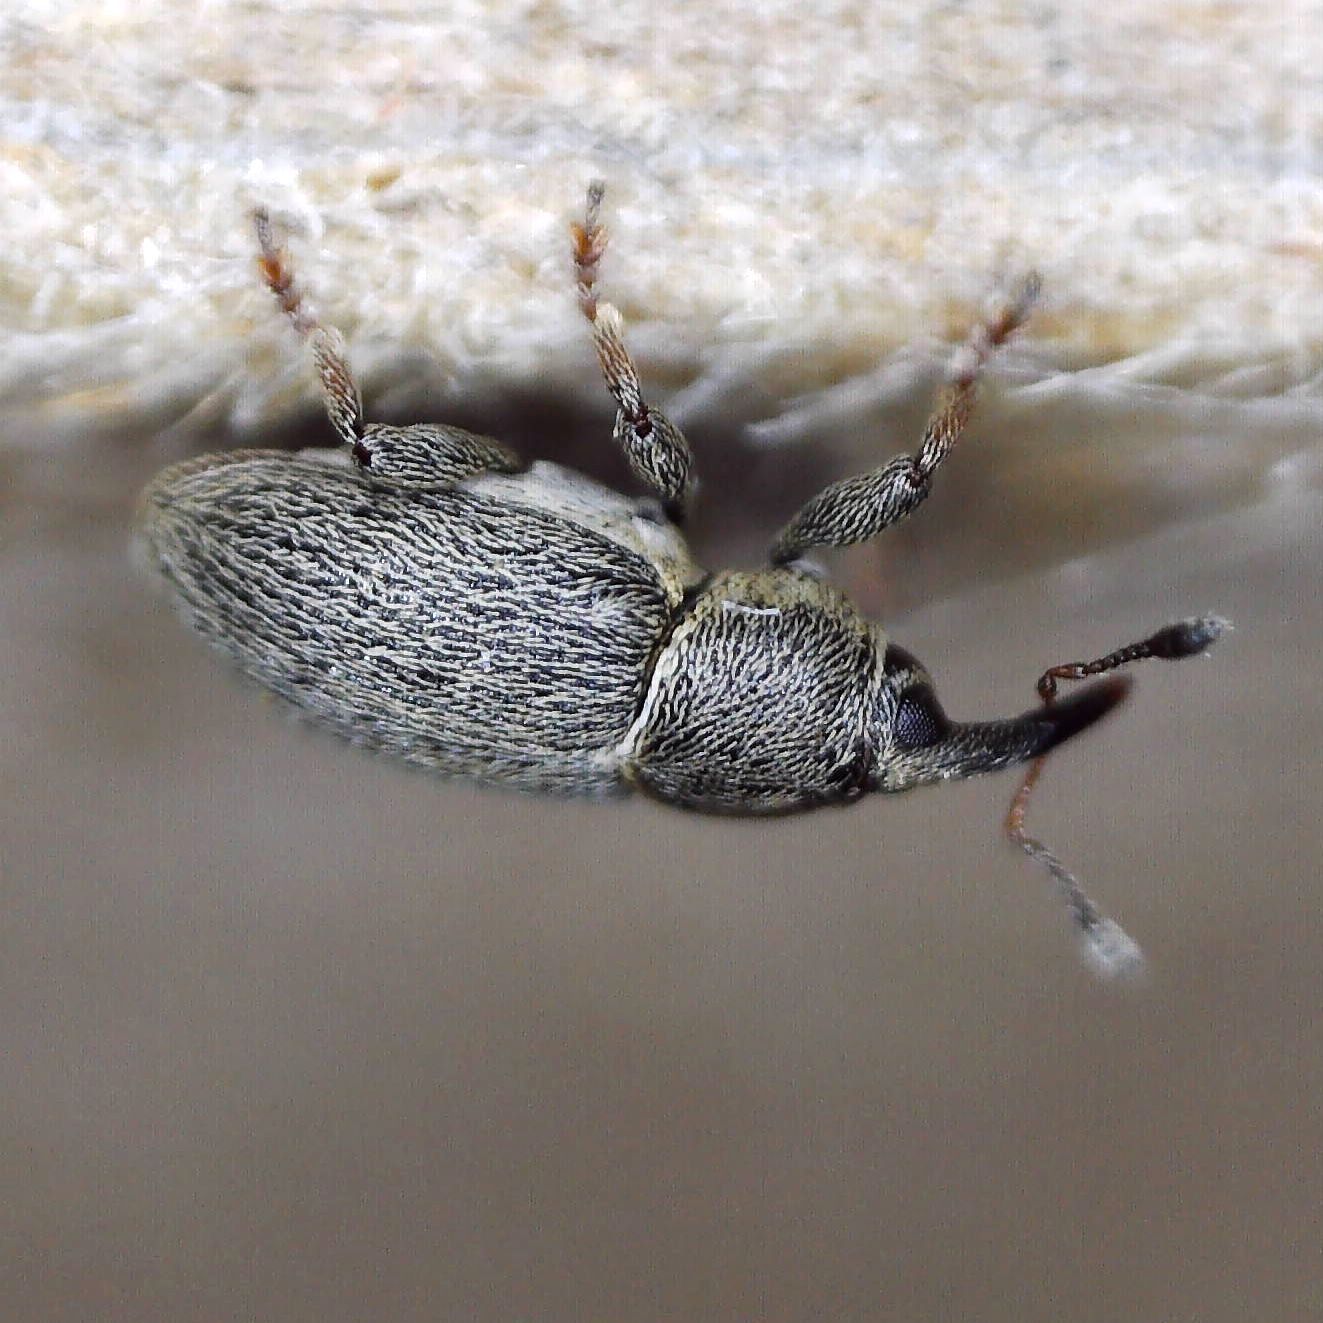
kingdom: Animalia
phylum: Arthropoda
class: Insecta
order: Coleoptera
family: Curculionidae
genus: Tychius
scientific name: Tychius picirostris
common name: Clover seed weevil
